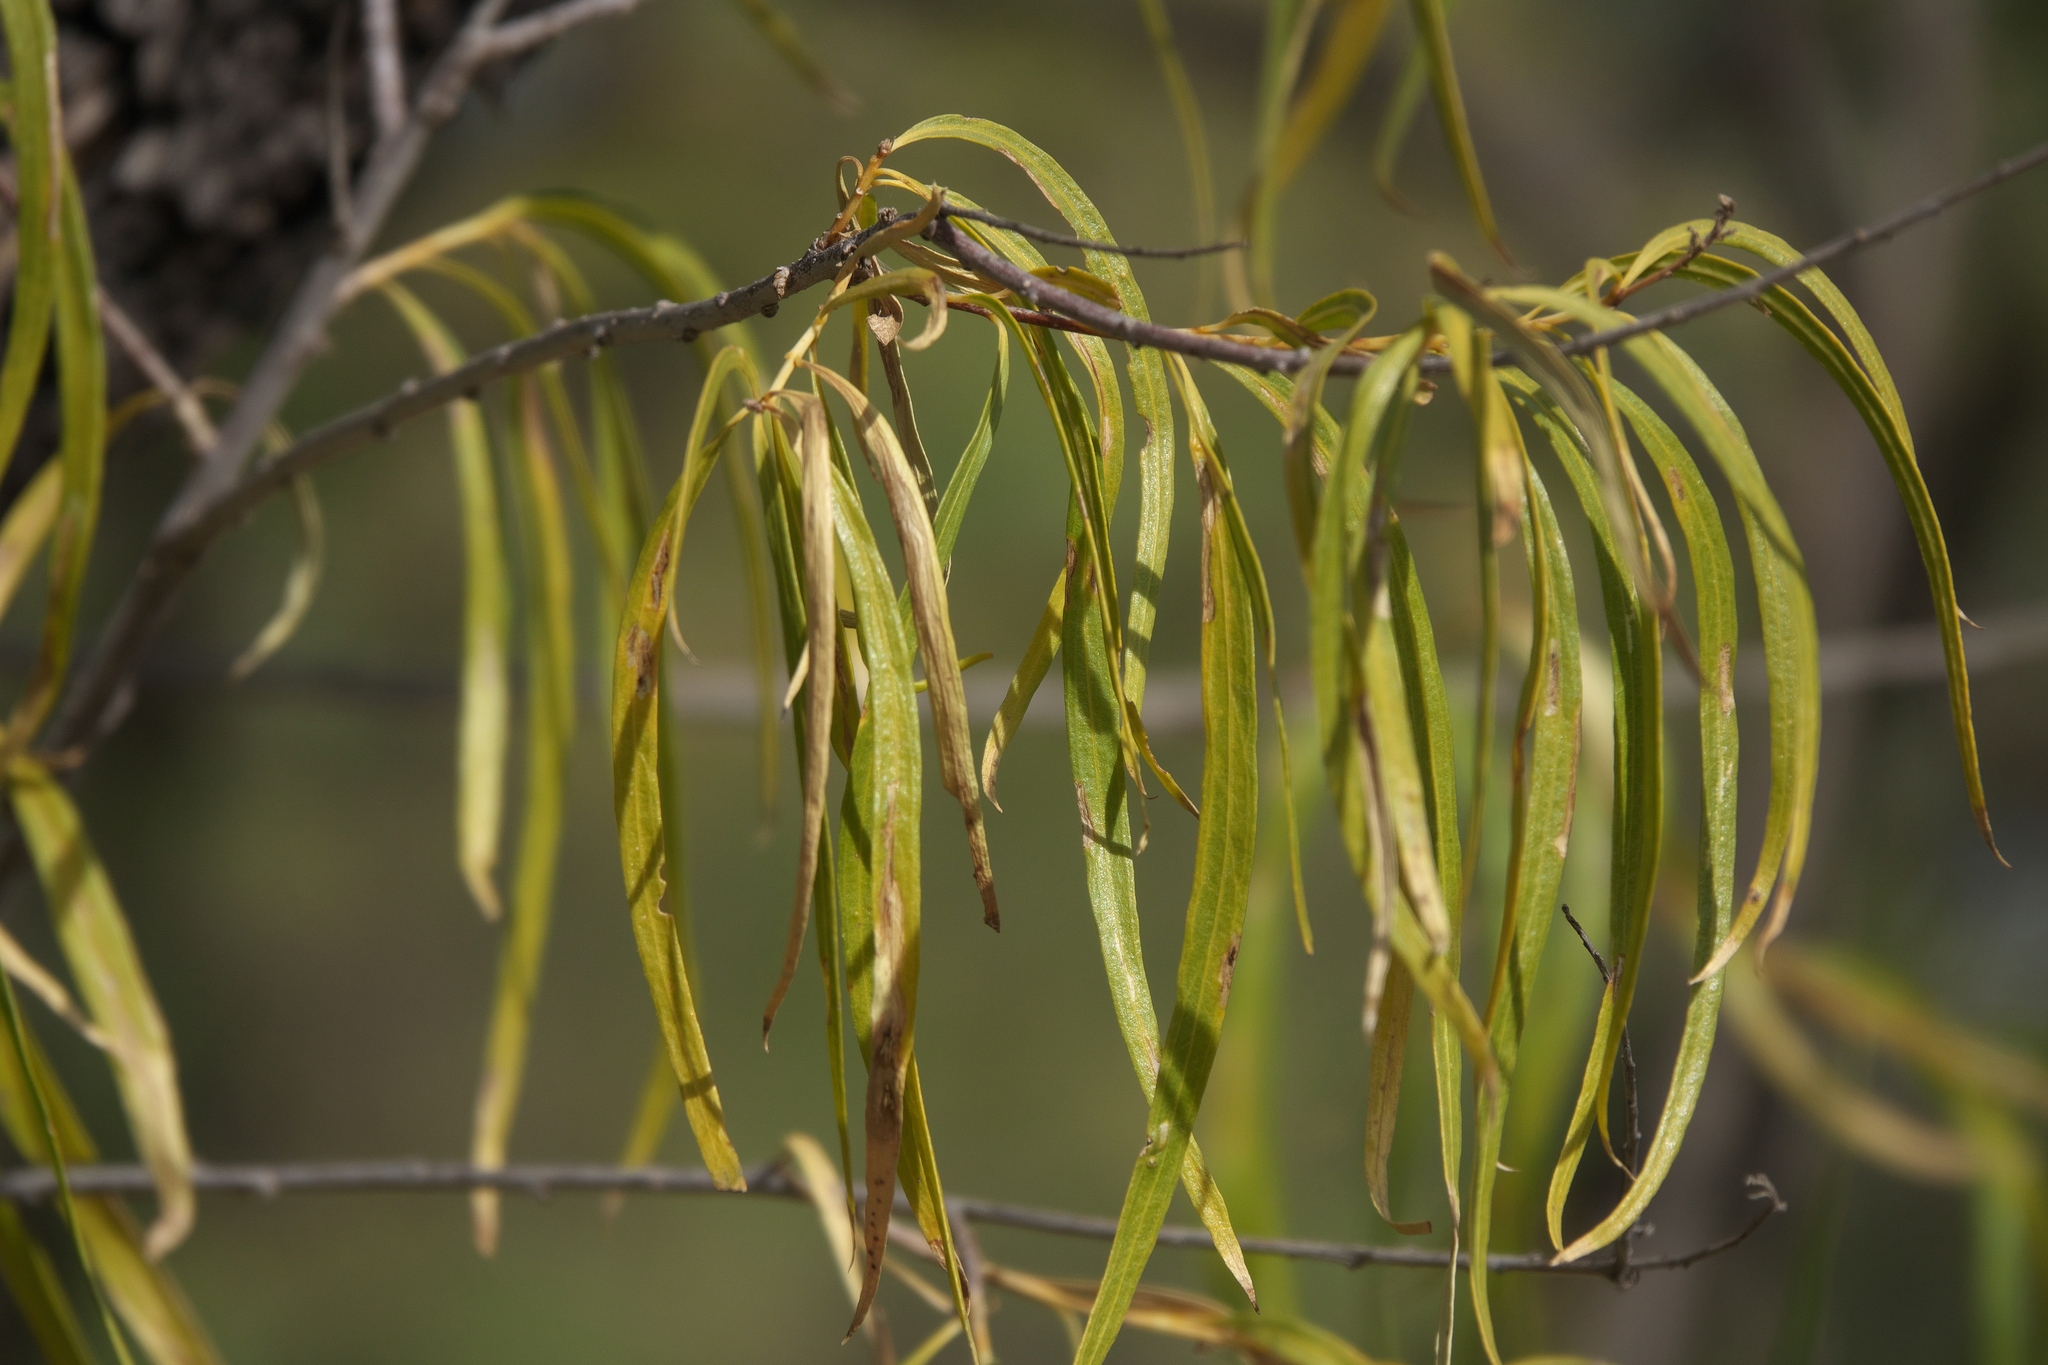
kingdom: Plantae
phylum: Tracheophyta
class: Magnoliopsida
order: Lamiales
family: Bignoniaceae
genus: Chilopsis
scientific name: Chilopsis linearis
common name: Desert-willow
